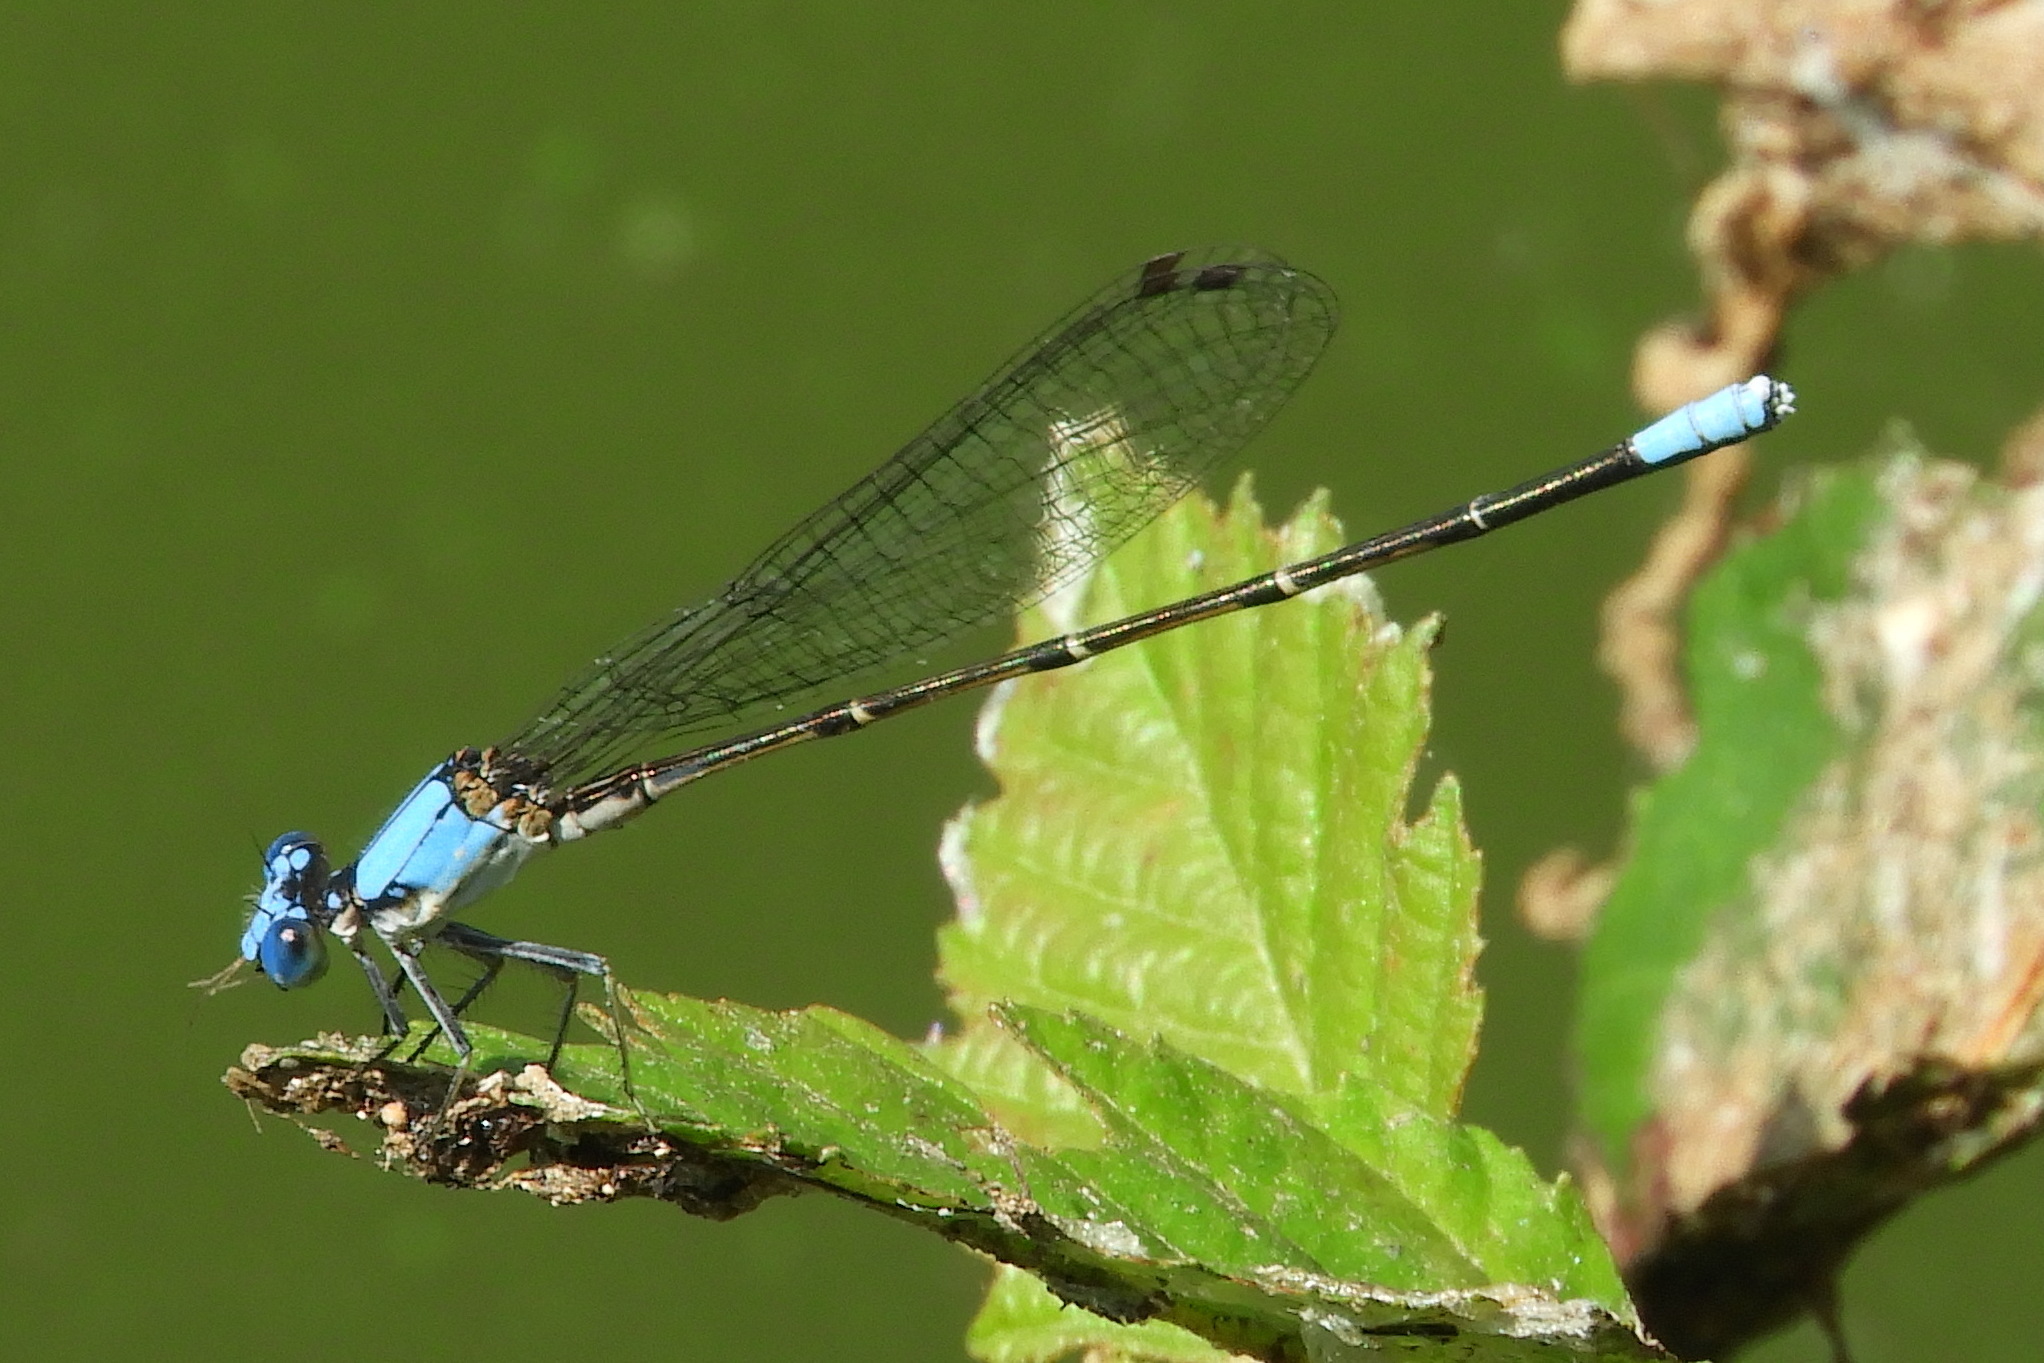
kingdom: Animalia
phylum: Arthropoda
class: Insecta
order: Odonata
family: Coenagrionidae
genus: Argia
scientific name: Argia apicalis
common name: Blue-fronted dancer
